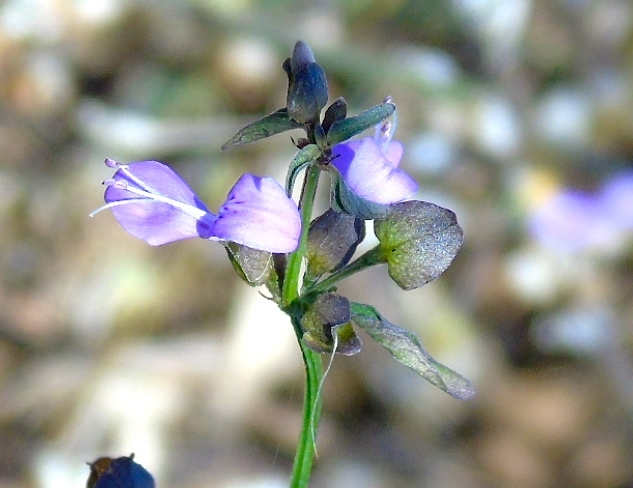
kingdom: Plantae
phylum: Tracheophyta
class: Magnoliopsida
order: Lamiales
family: Acanthaceae
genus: Dicliptera
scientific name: Dicliptera resupinata
